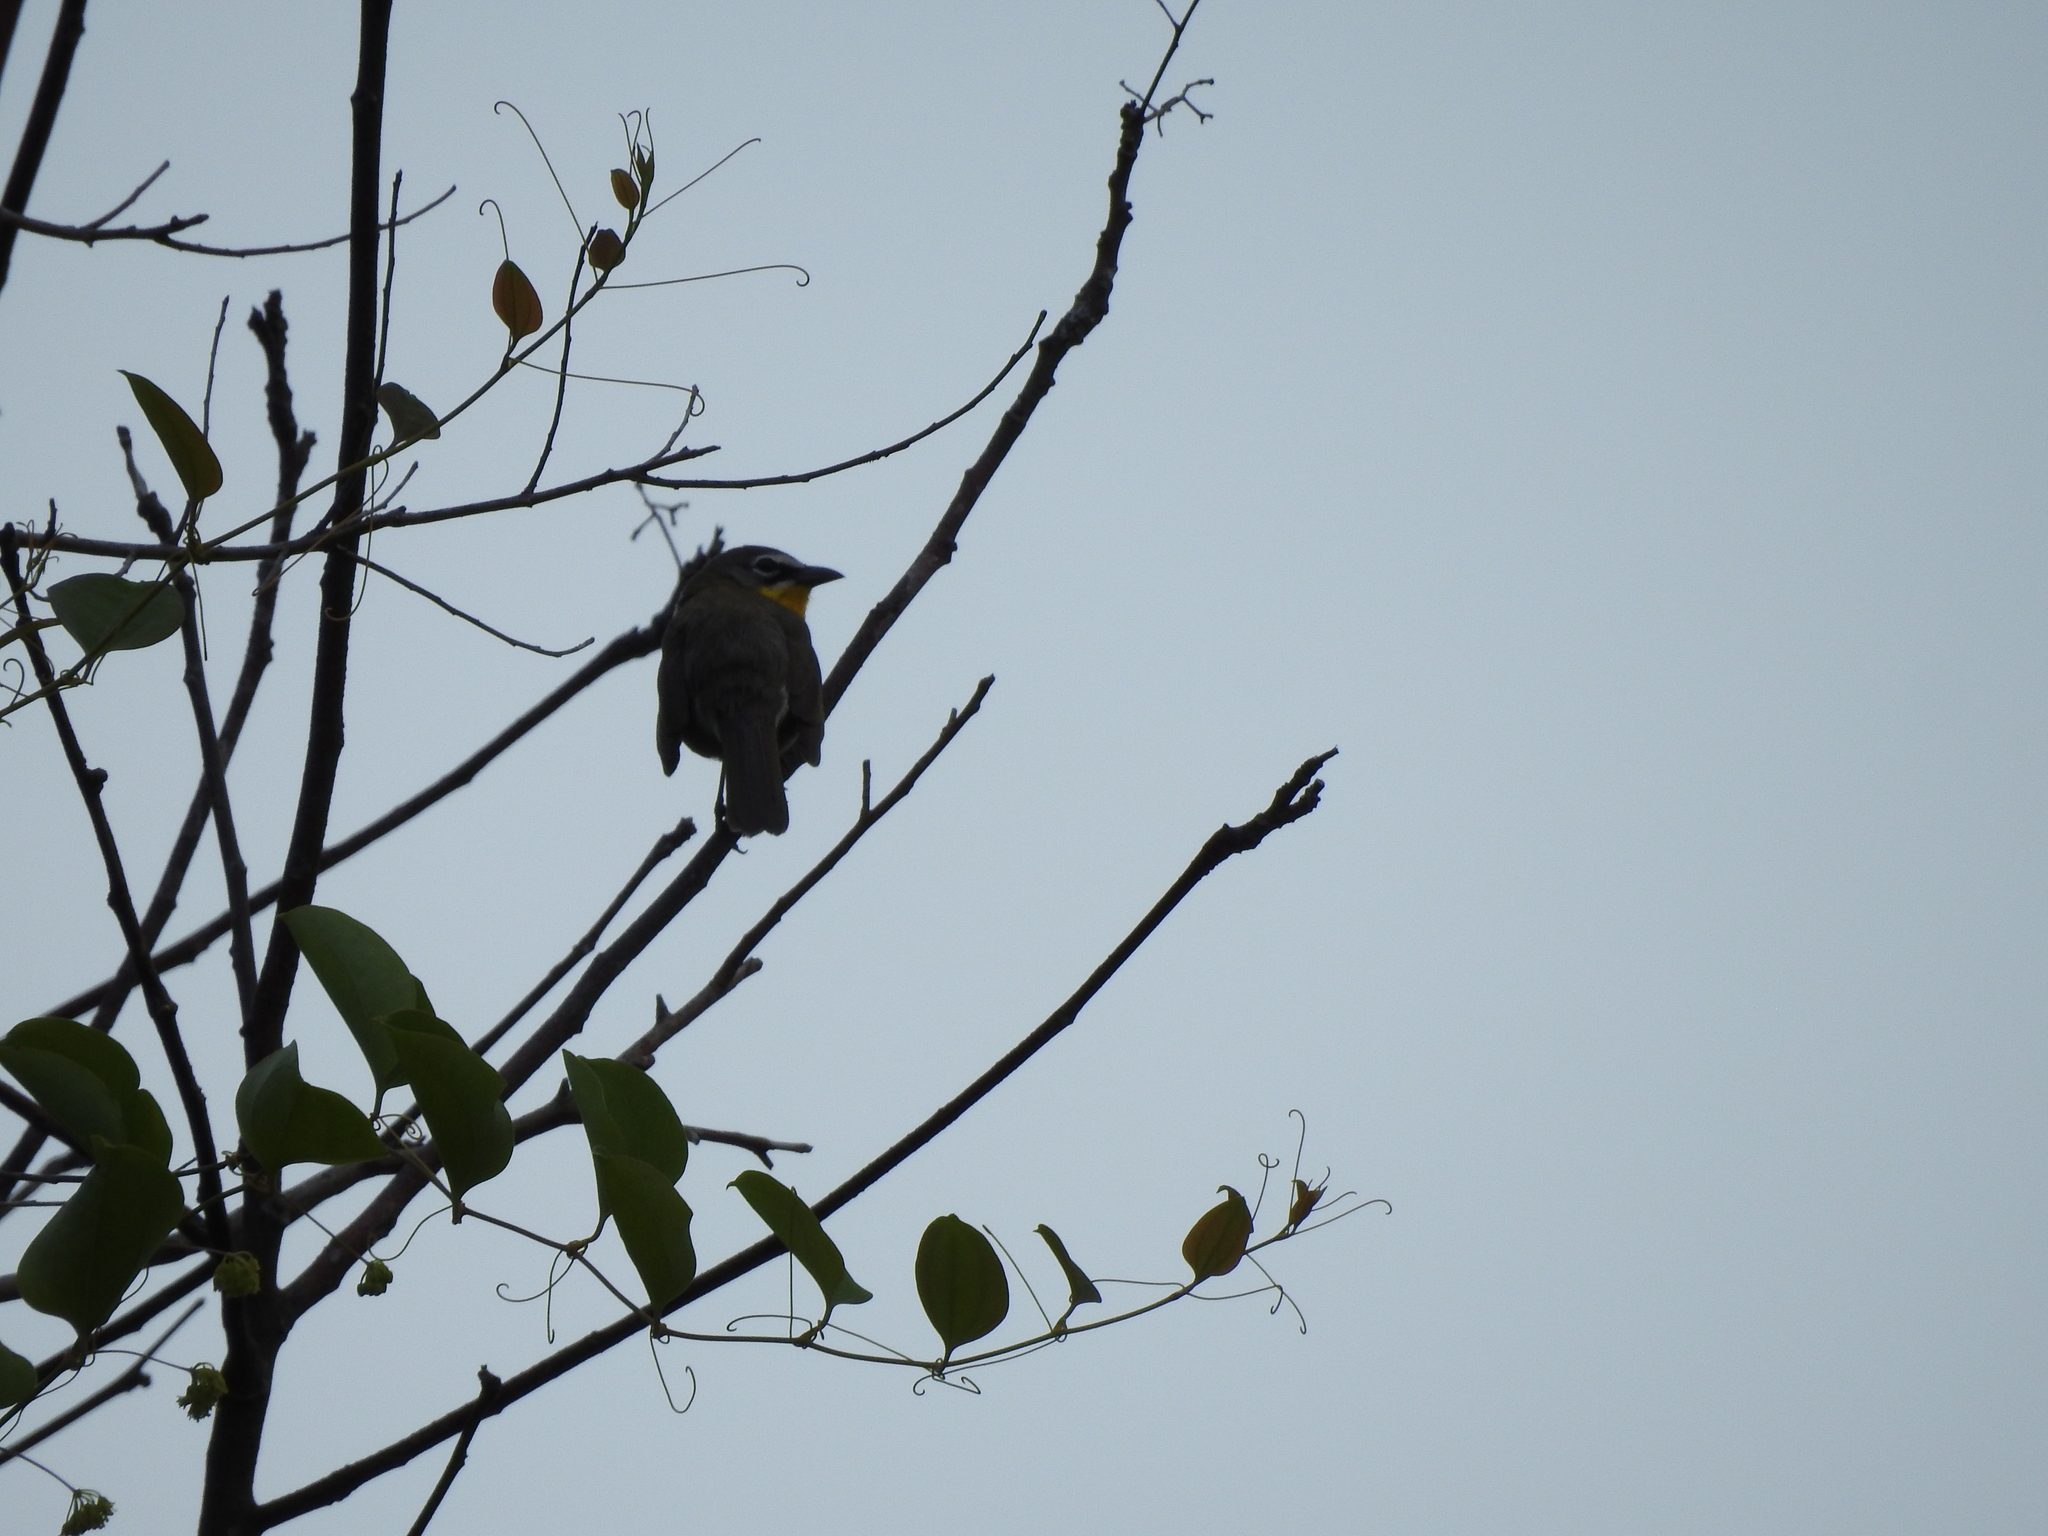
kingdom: Animalia
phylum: Chordata
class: Aves
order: Passeriformes
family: Parulidae
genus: Icteria
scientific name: Icteria virens
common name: Yellow-breasted chat
